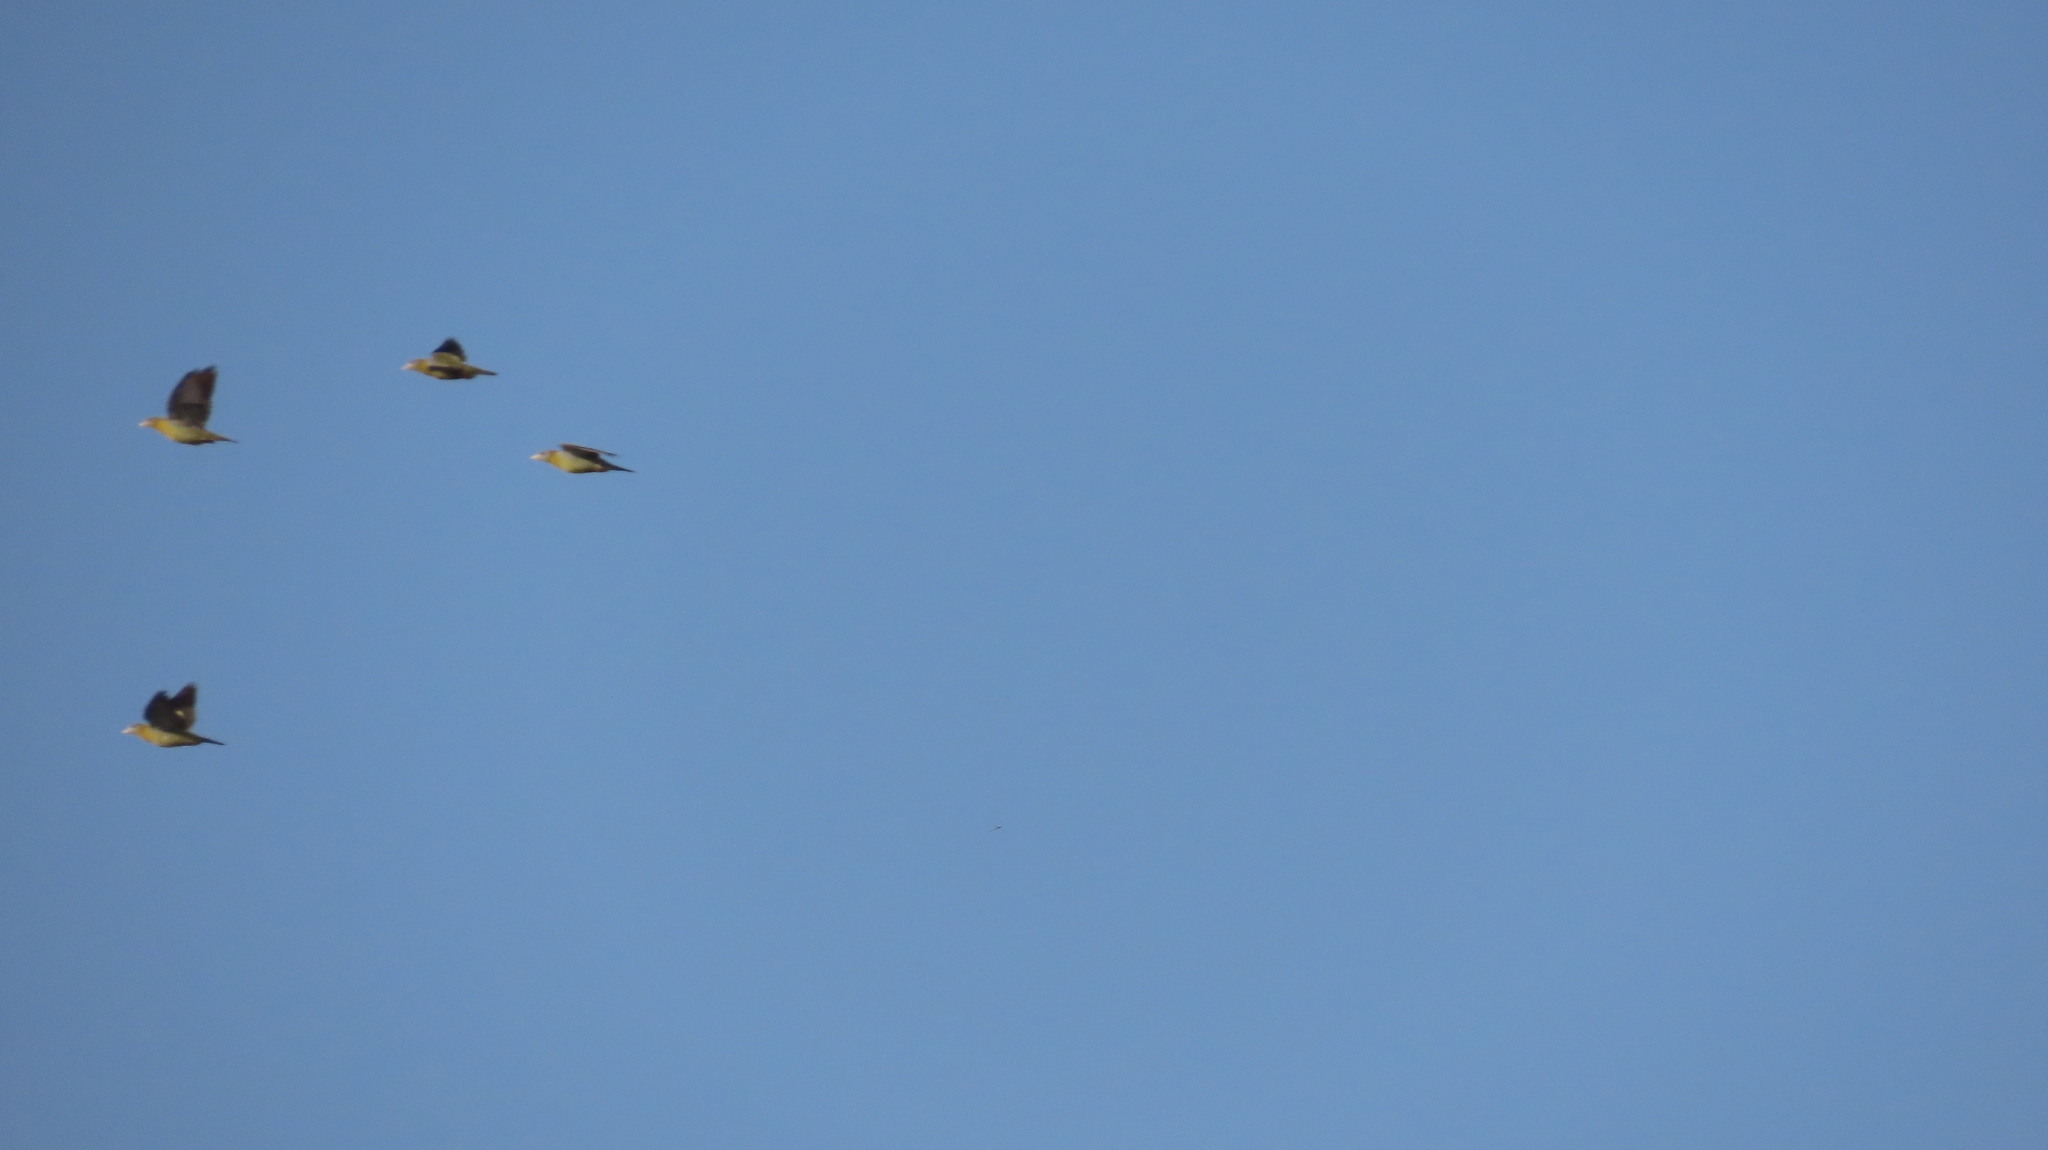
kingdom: Animalia
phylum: Chordata
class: Aves
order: Columbiformes
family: Columbidae
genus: Treron
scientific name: Treron phoenicopterus
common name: Yellow-footed green pigeon
